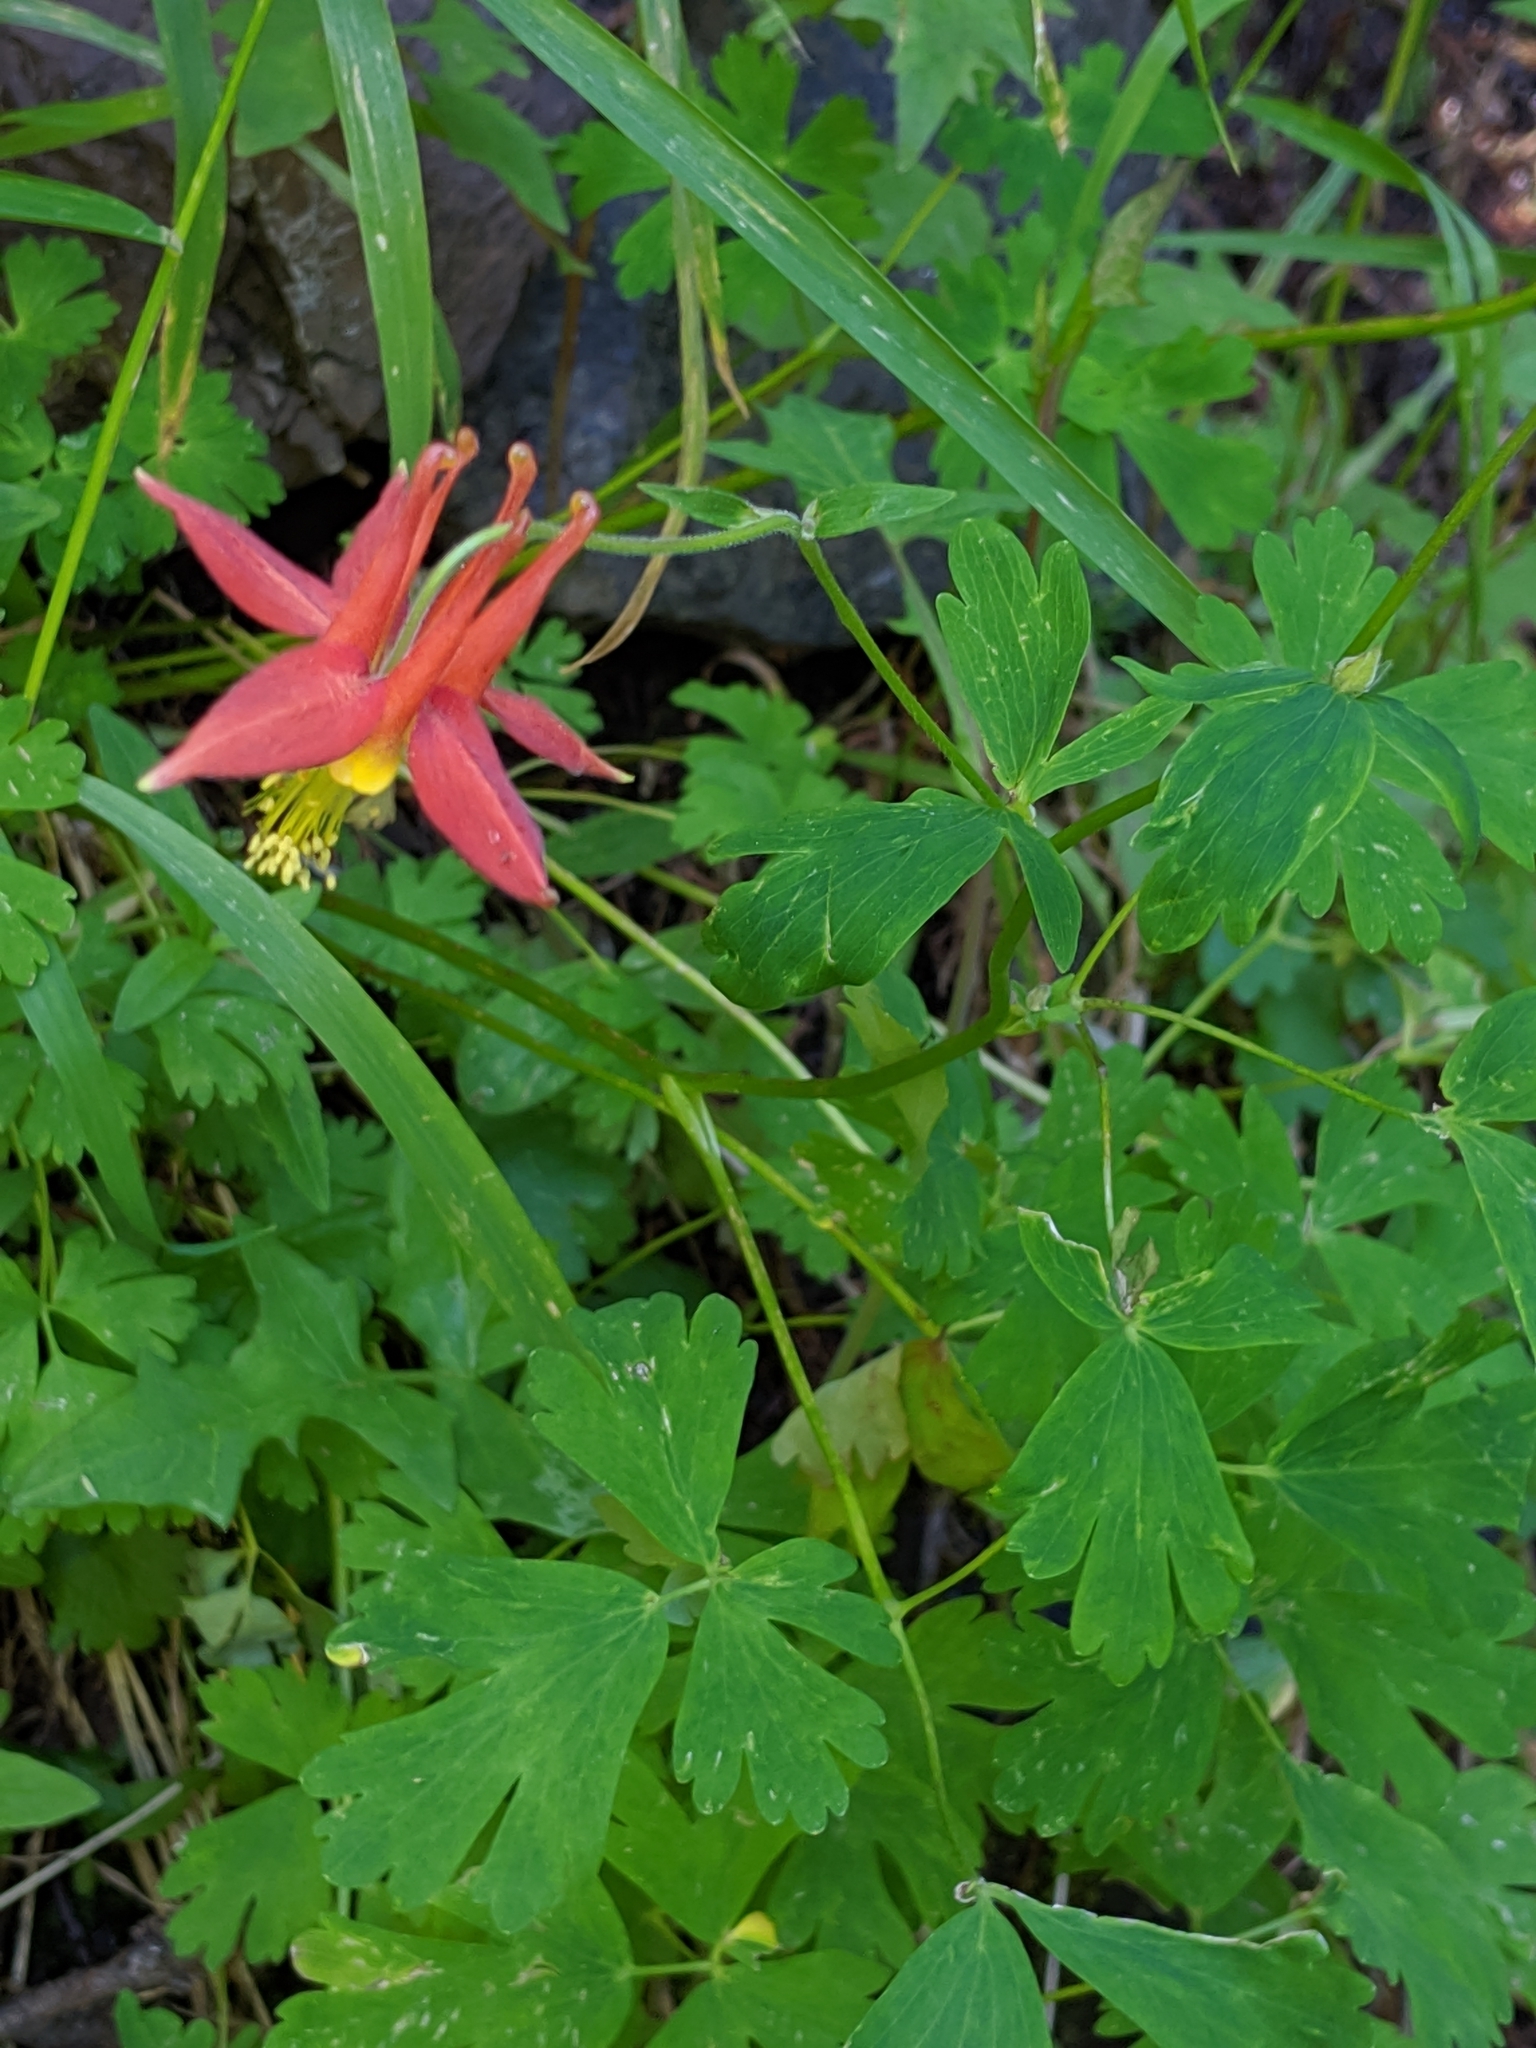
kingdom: Plantae
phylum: Tracheophyta
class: Magnoliopsida
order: Ranunculales
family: Ranunculaceae
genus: Aquilegia
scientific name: Aquilegia formosa
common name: Sitka columbine
